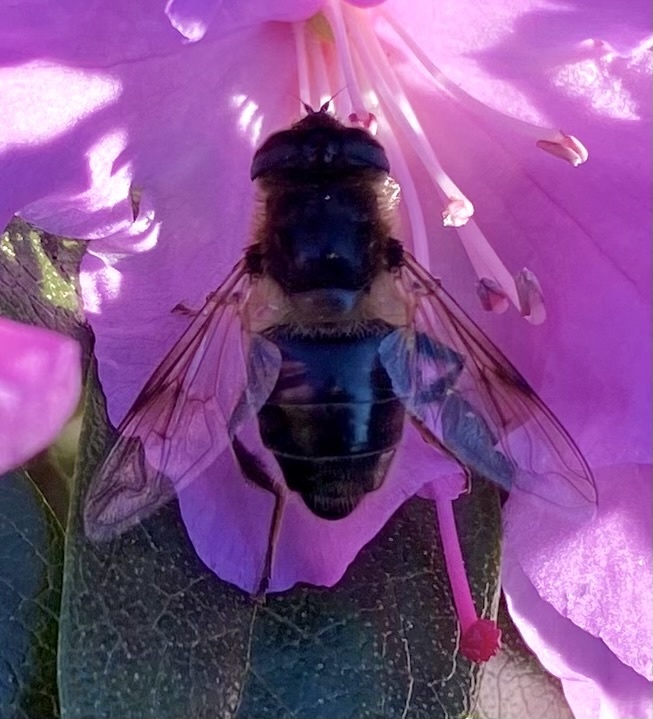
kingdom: Animalia
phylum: Arthropoda
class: Insecta
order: Diptera
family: Syrphidae
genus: Eristalis
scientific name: Eristalis tenax
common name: Drone fly
